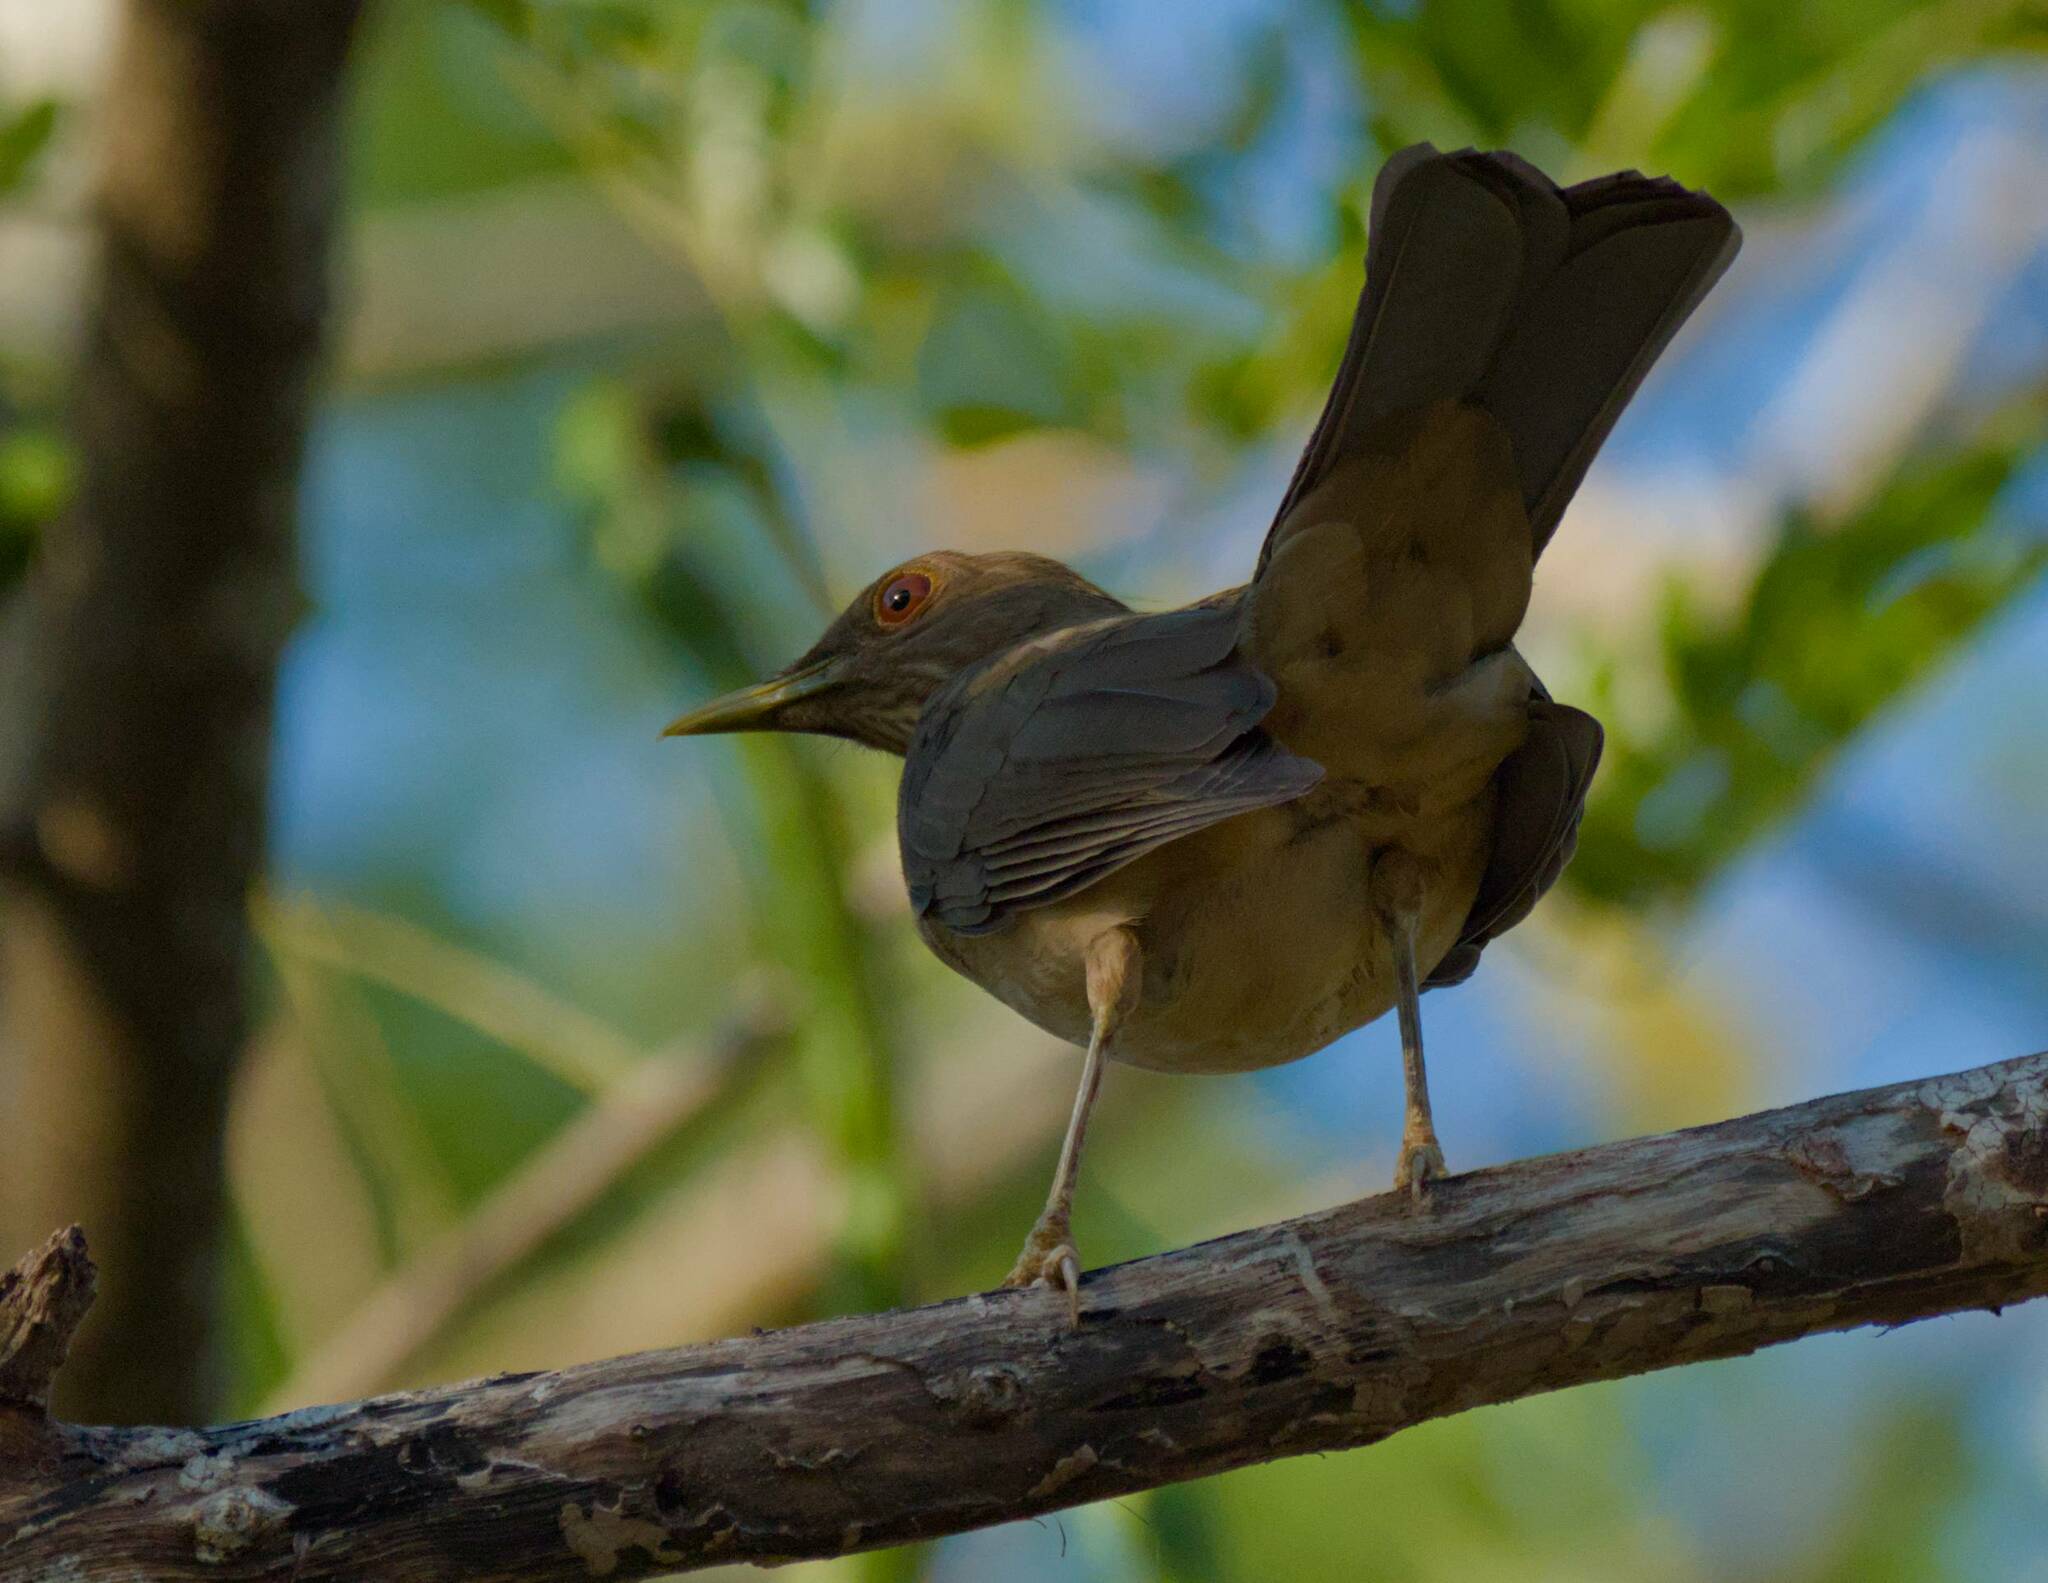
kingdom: Animalia
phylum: Chordata
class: Aves
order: Passeriformes
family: Turdidae
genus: Turdus
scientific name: Turdus grayi
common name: Clay-colored thrush
